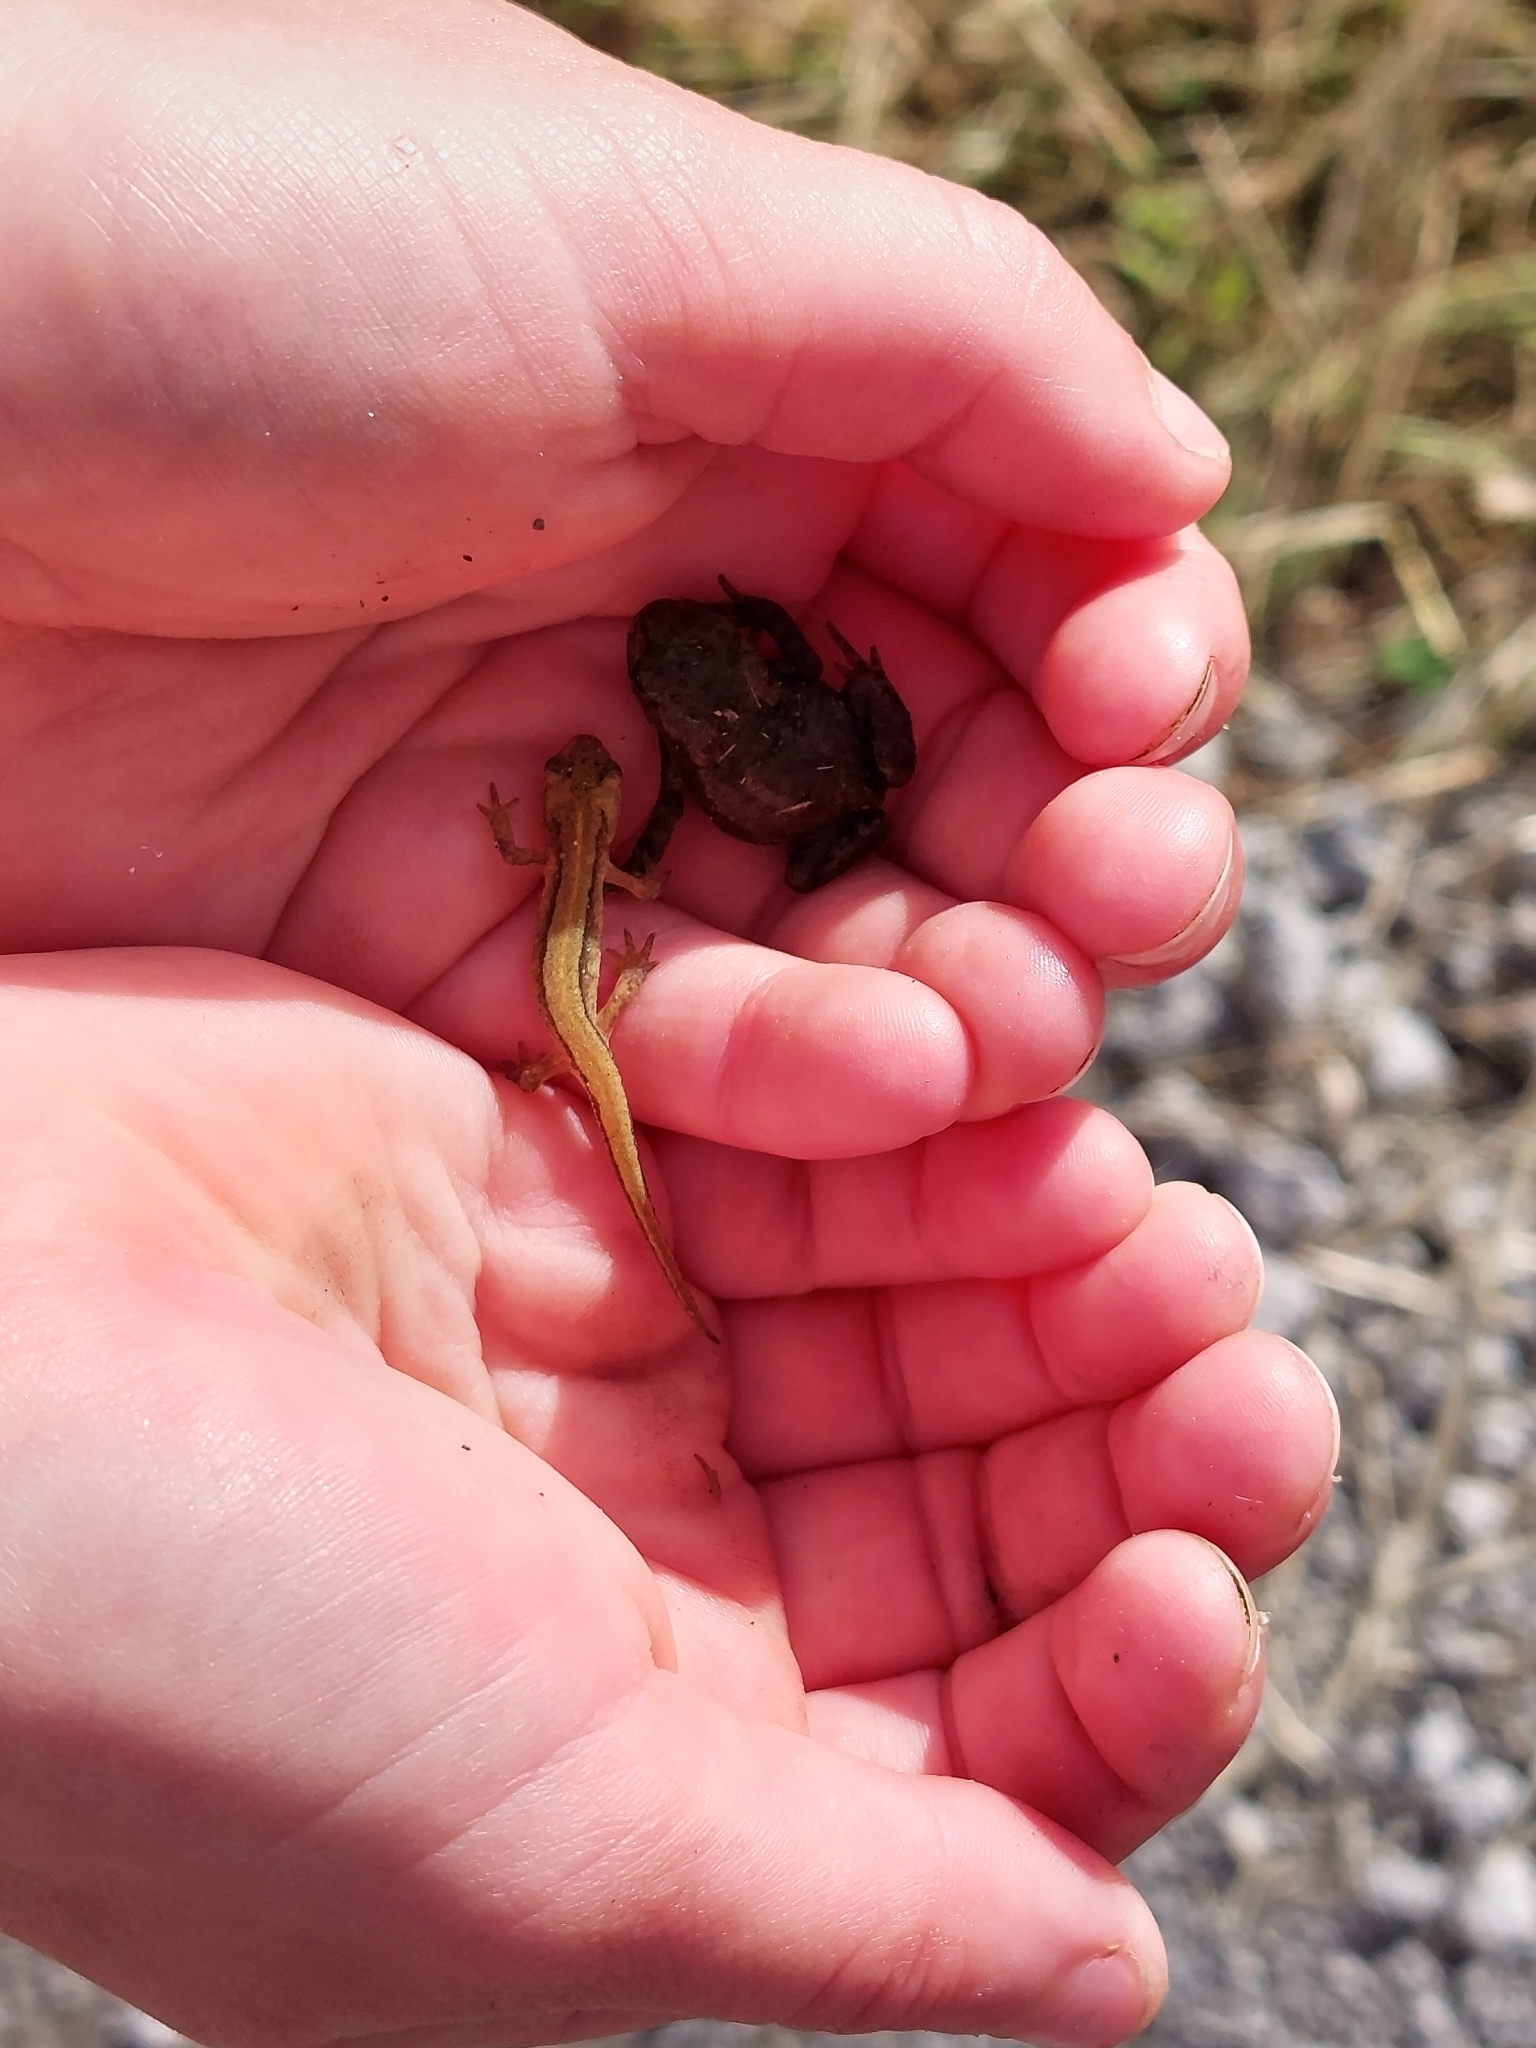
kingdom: Animalia
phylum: Chordata
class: Amphibia
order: Anura
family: Bufonidae
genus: Bufo
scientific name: Bufo bufo
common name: Common toad
